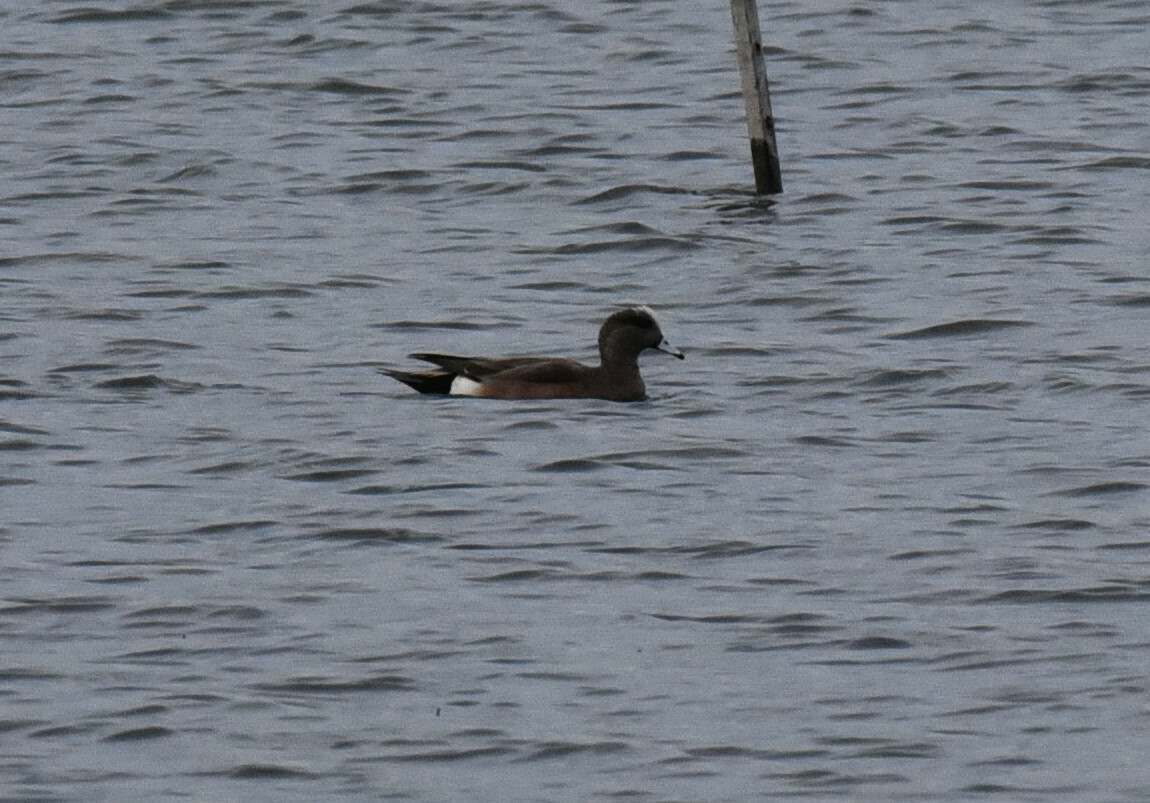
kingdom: Animalia
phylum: Chordata
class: Aves
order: Anseriformes
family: Anatidae
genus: Mareca
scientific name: Mareca americana
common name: American wigeon
